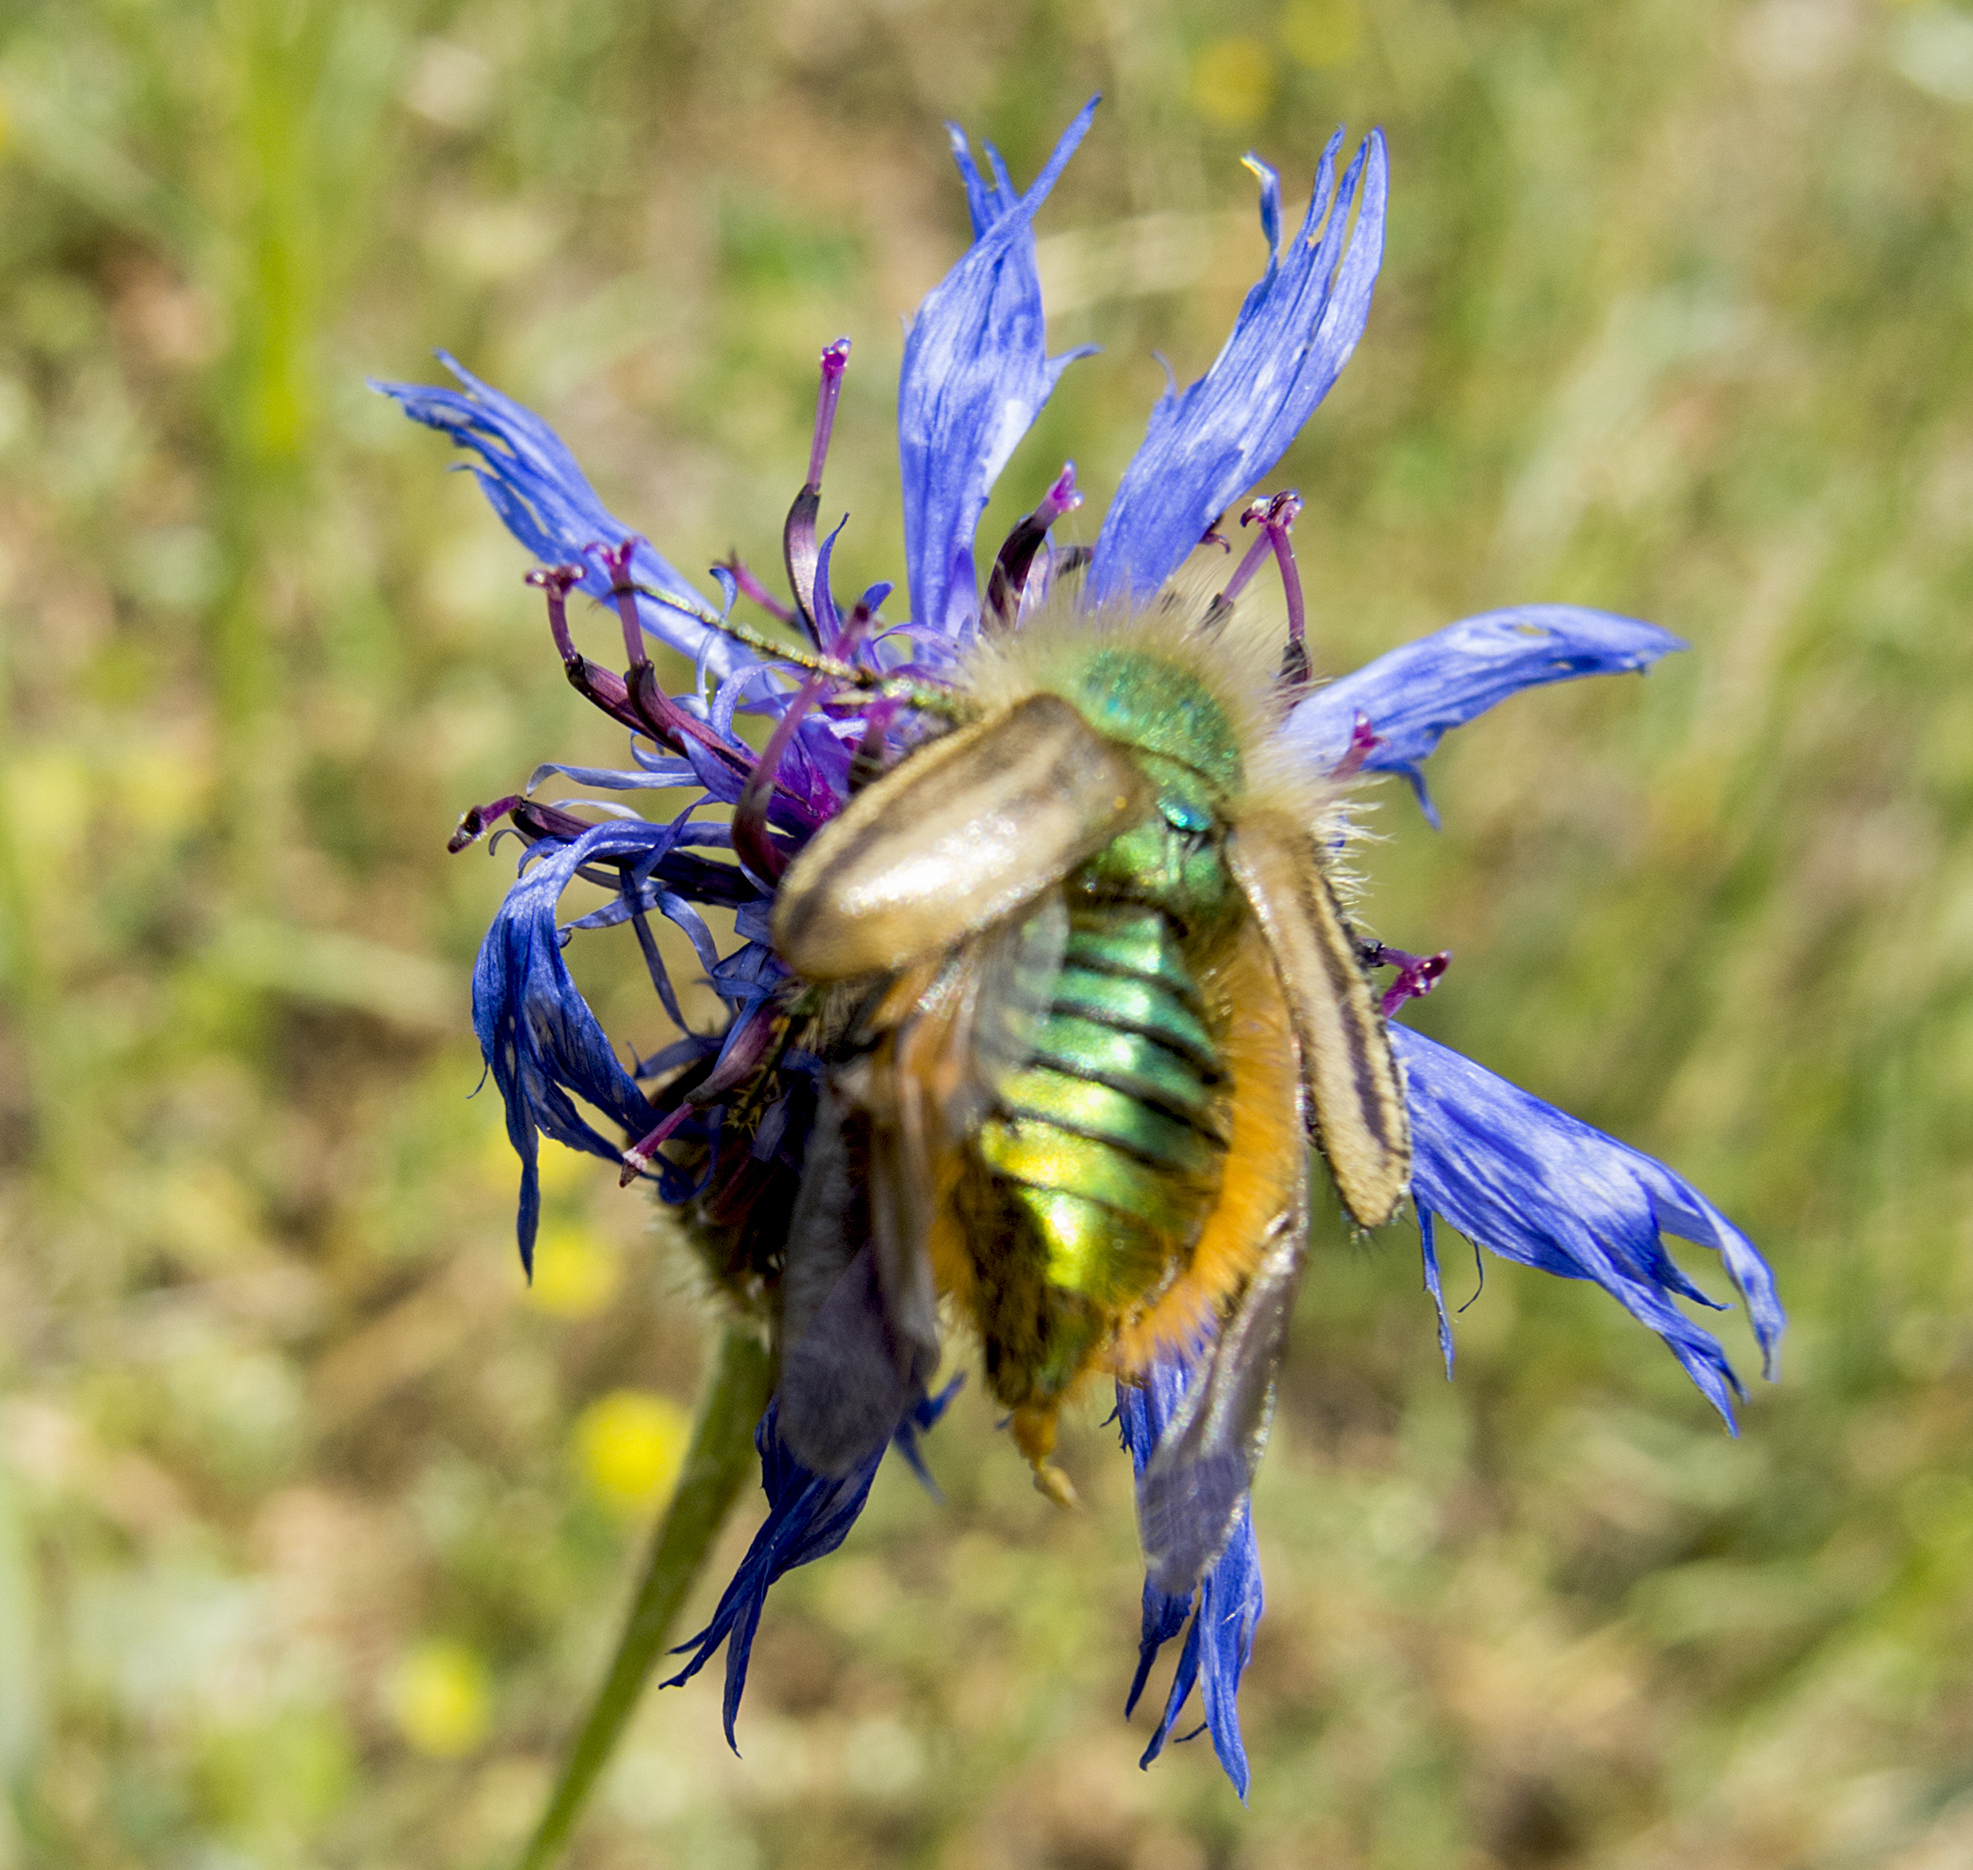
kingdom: Animalia
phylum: Arthropoda
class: Insecta
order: Coleoptera
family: Glaphyridae
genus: Eulasia
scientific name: Eulasia pareyssei
